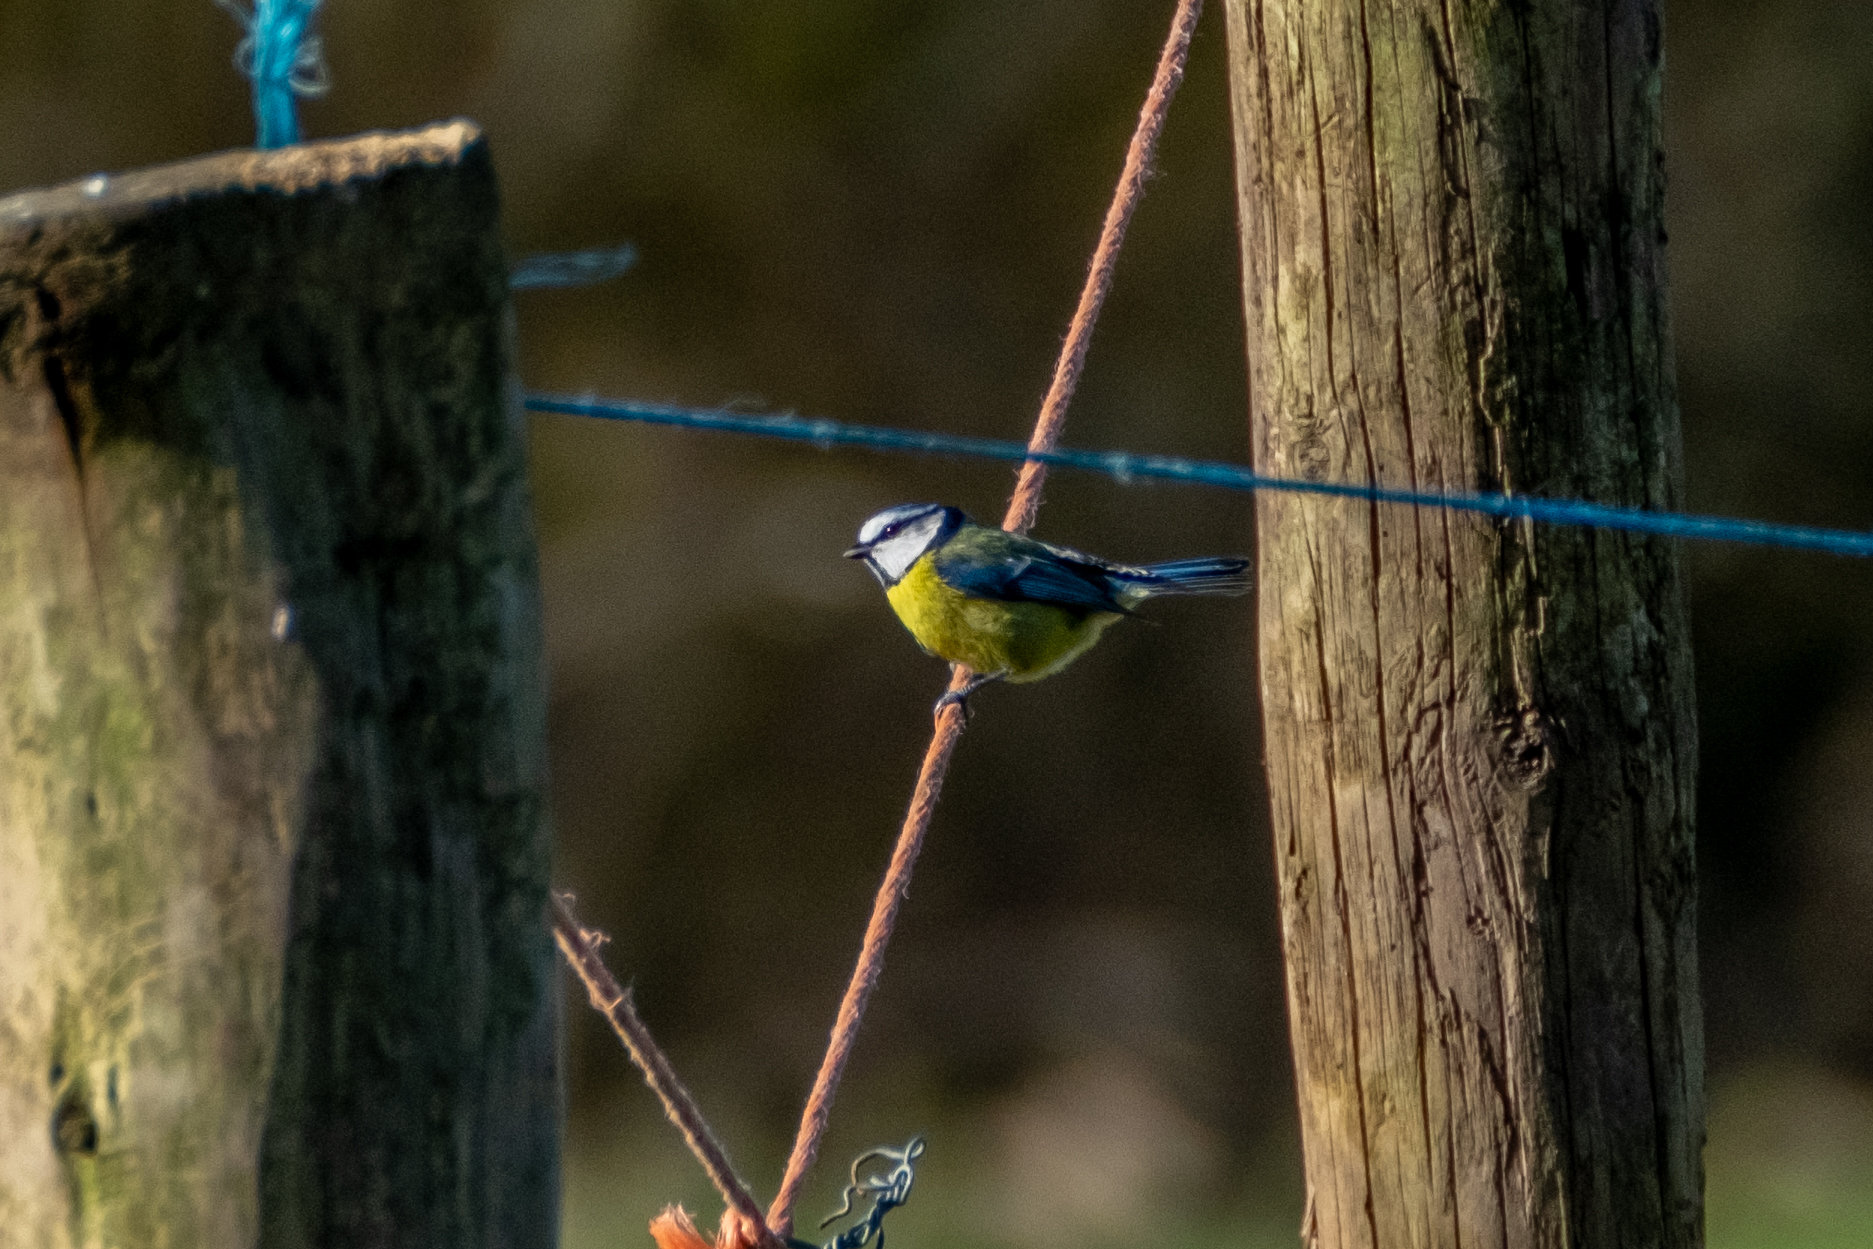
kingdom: Animalia
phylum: Chordata
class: Aves
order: Passeriformes
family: Paridae
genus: Cyanistes
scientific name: Cyanistes caeruleus
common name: Eurasian blue tit
